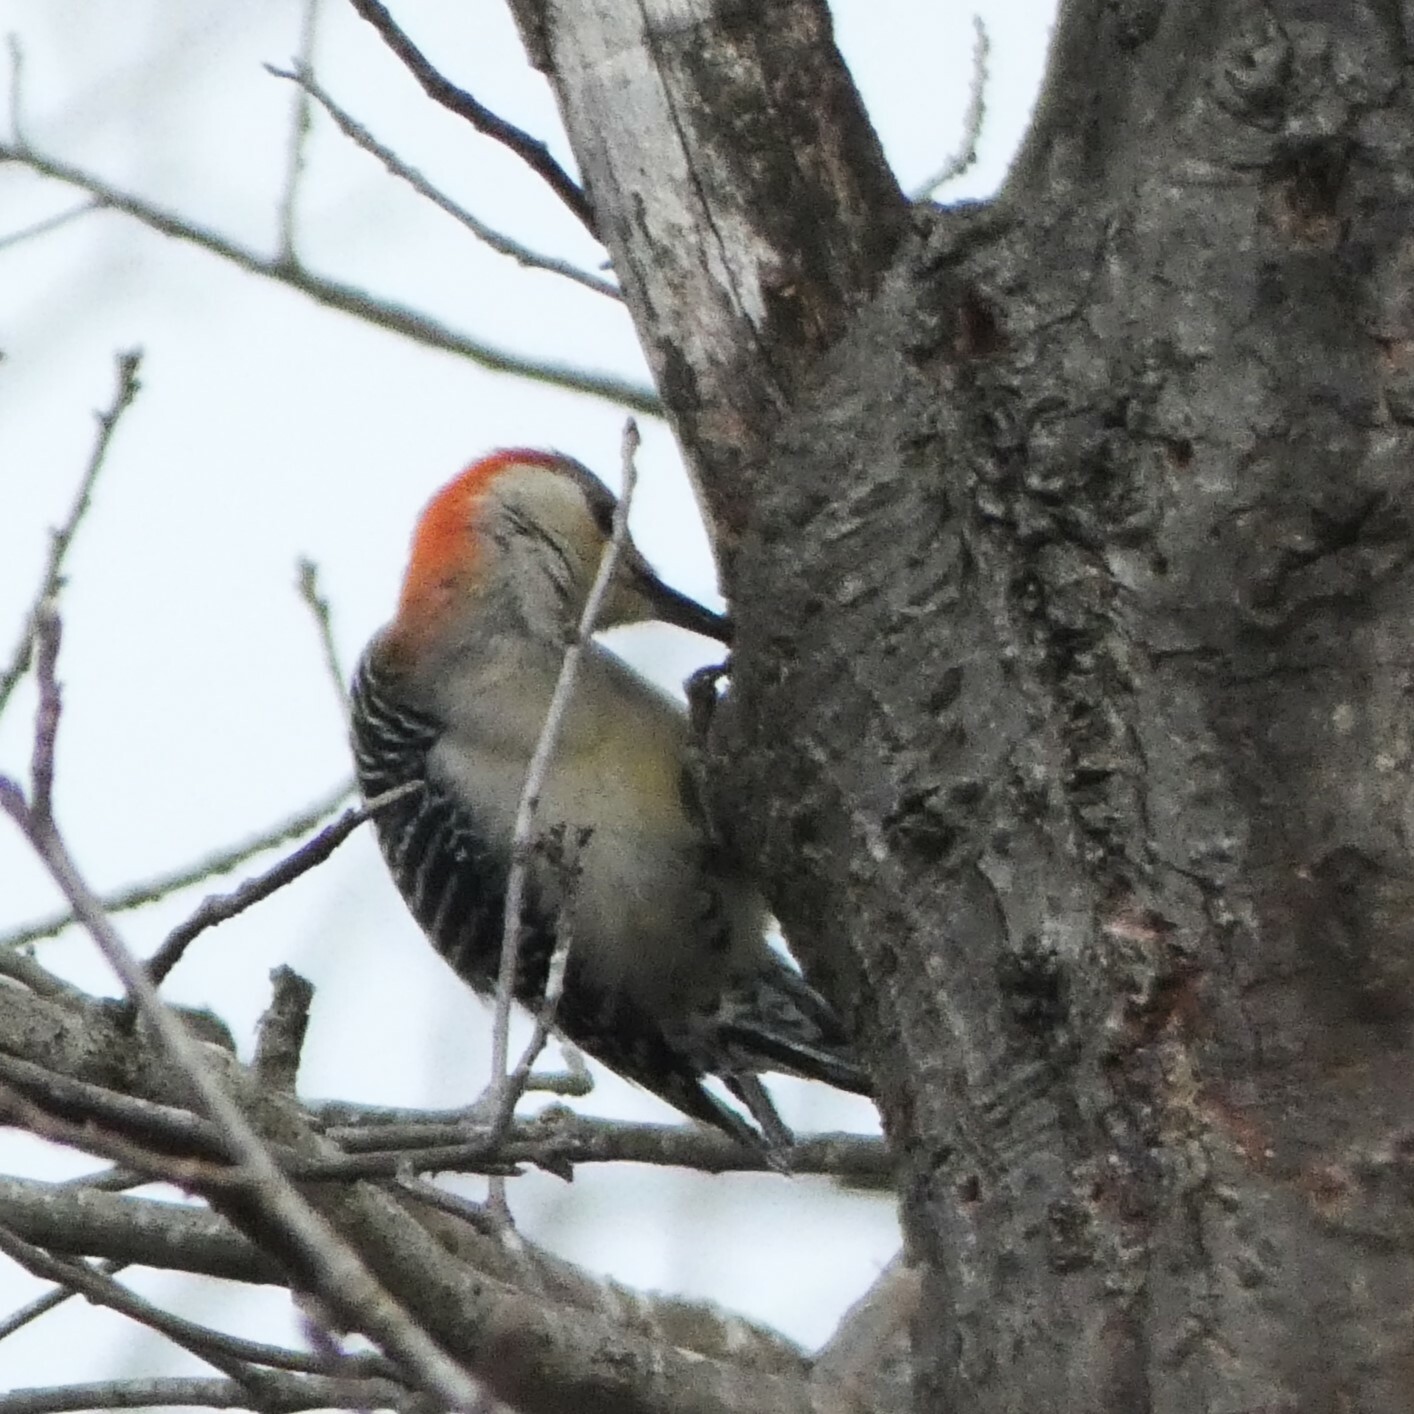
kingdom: Animalia
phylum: Chordata
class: Aves
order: Piciformes
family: Picidae
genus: Melanerpes
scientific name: Melanerpes carolinus
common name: Red-bellied woodpecker
